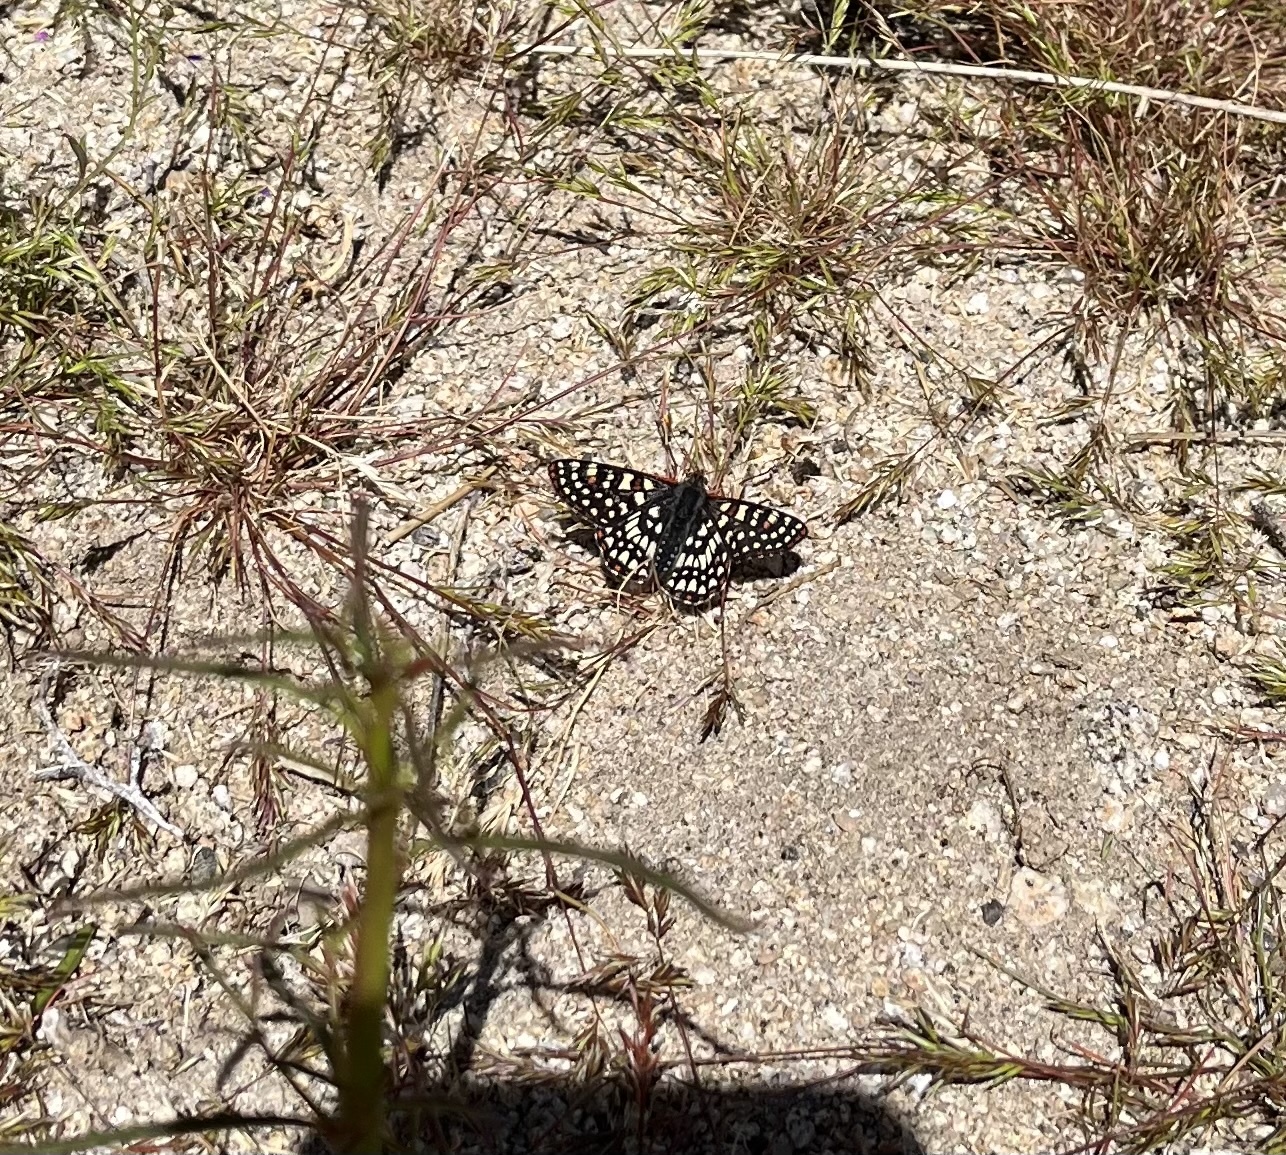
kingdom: Animalia
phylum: Arthropoda
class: Insecta
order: Lepidoptera
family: Nymphalidae
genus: Occidryas
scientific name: Occidryas chalcedona
